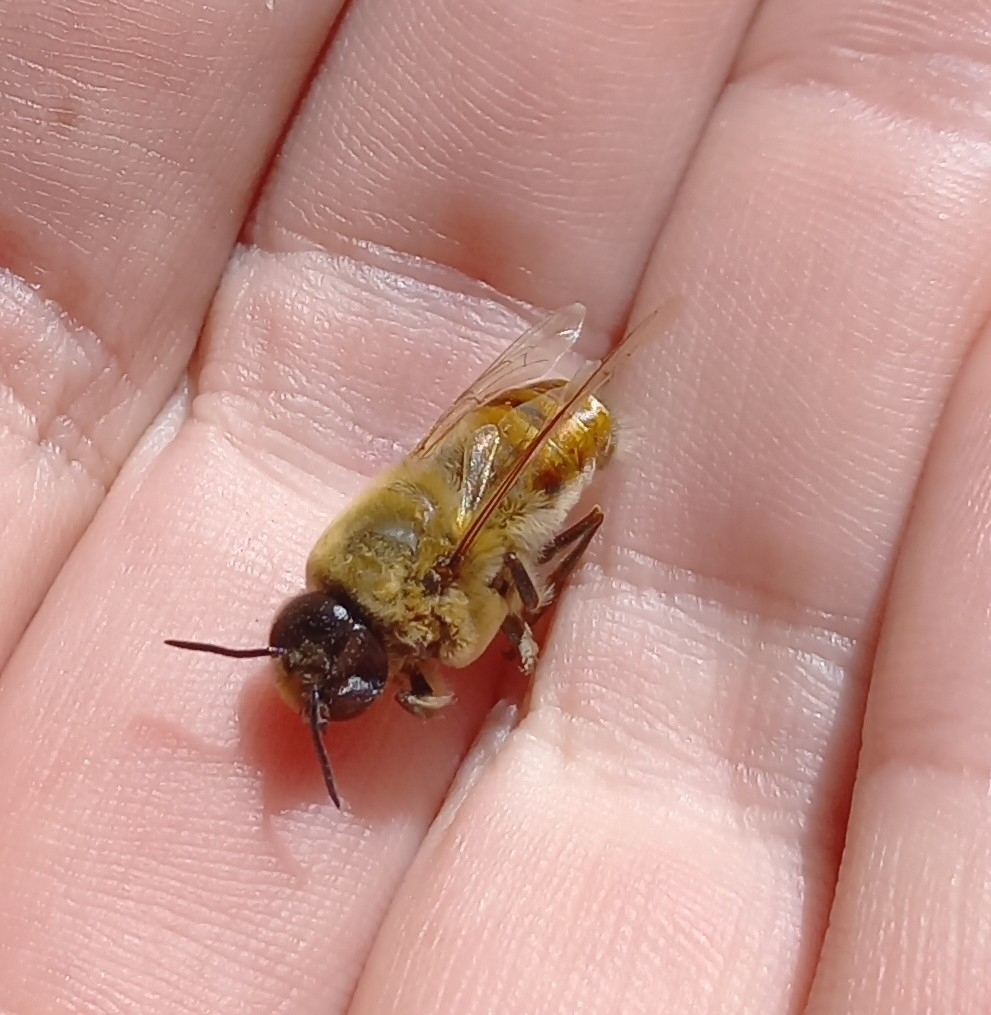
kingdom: Animalia
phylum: Arthropoda
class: Insecta
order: Hymenoptera
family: Apidae
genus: Apis
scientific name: Apis mellifera
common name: Honey bee
